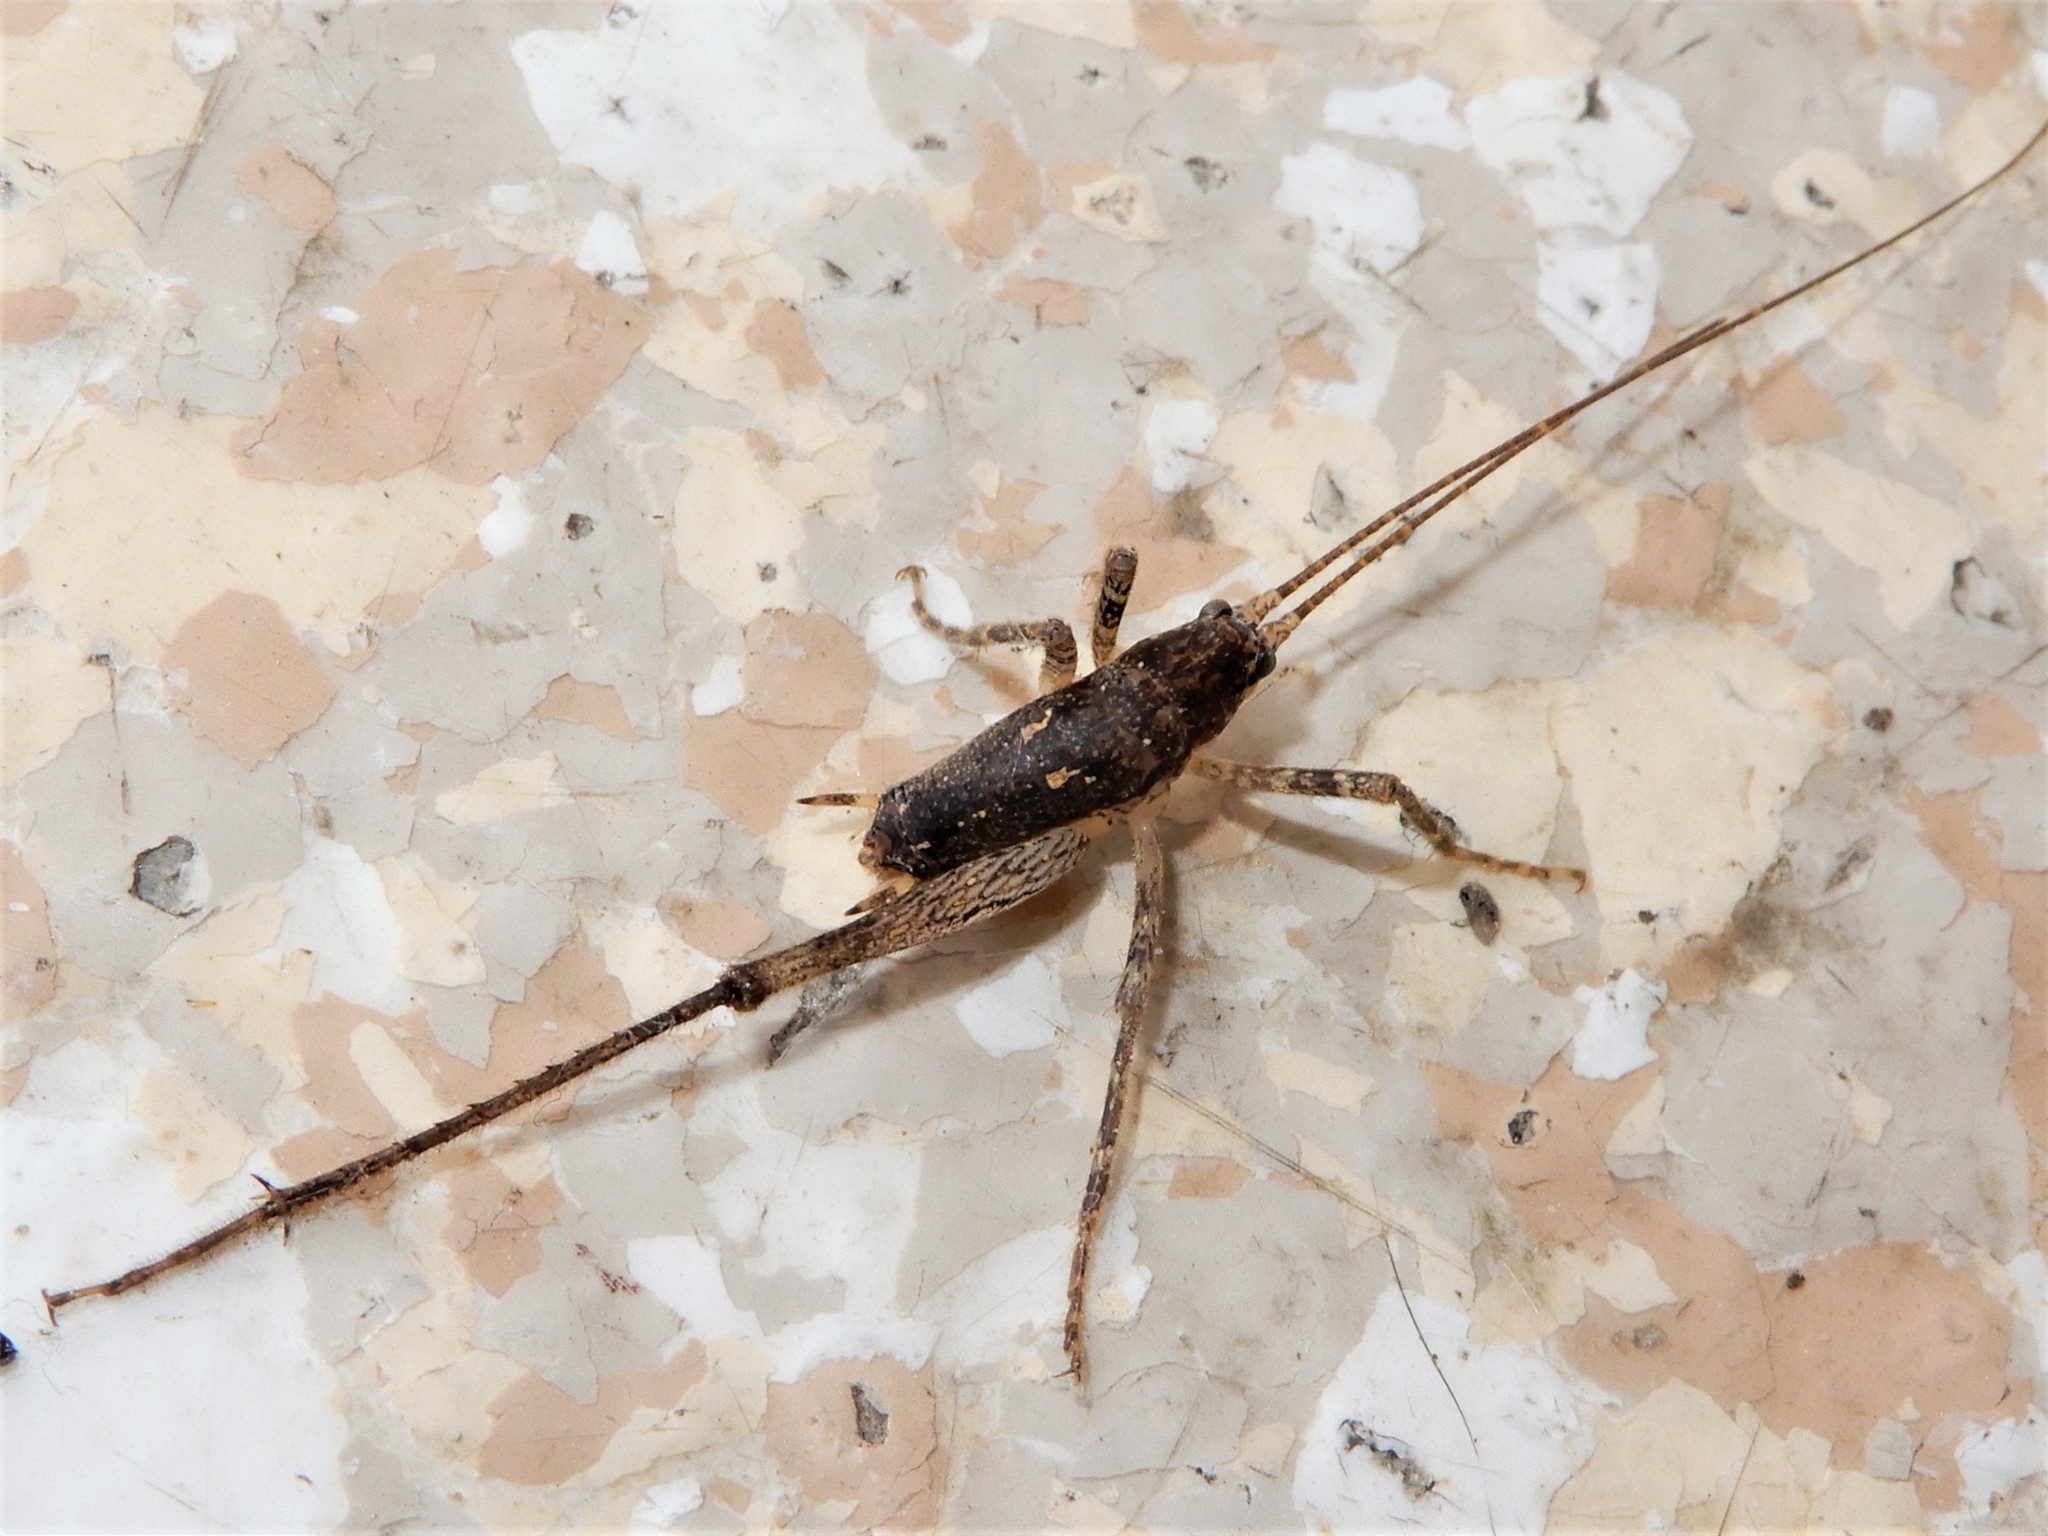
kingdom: Animalia
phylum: Arthropoda
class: Insecta
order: Orthoptera
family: Rhaphidophoridae
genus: Isoplectron
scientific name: Isoplectron armatum
